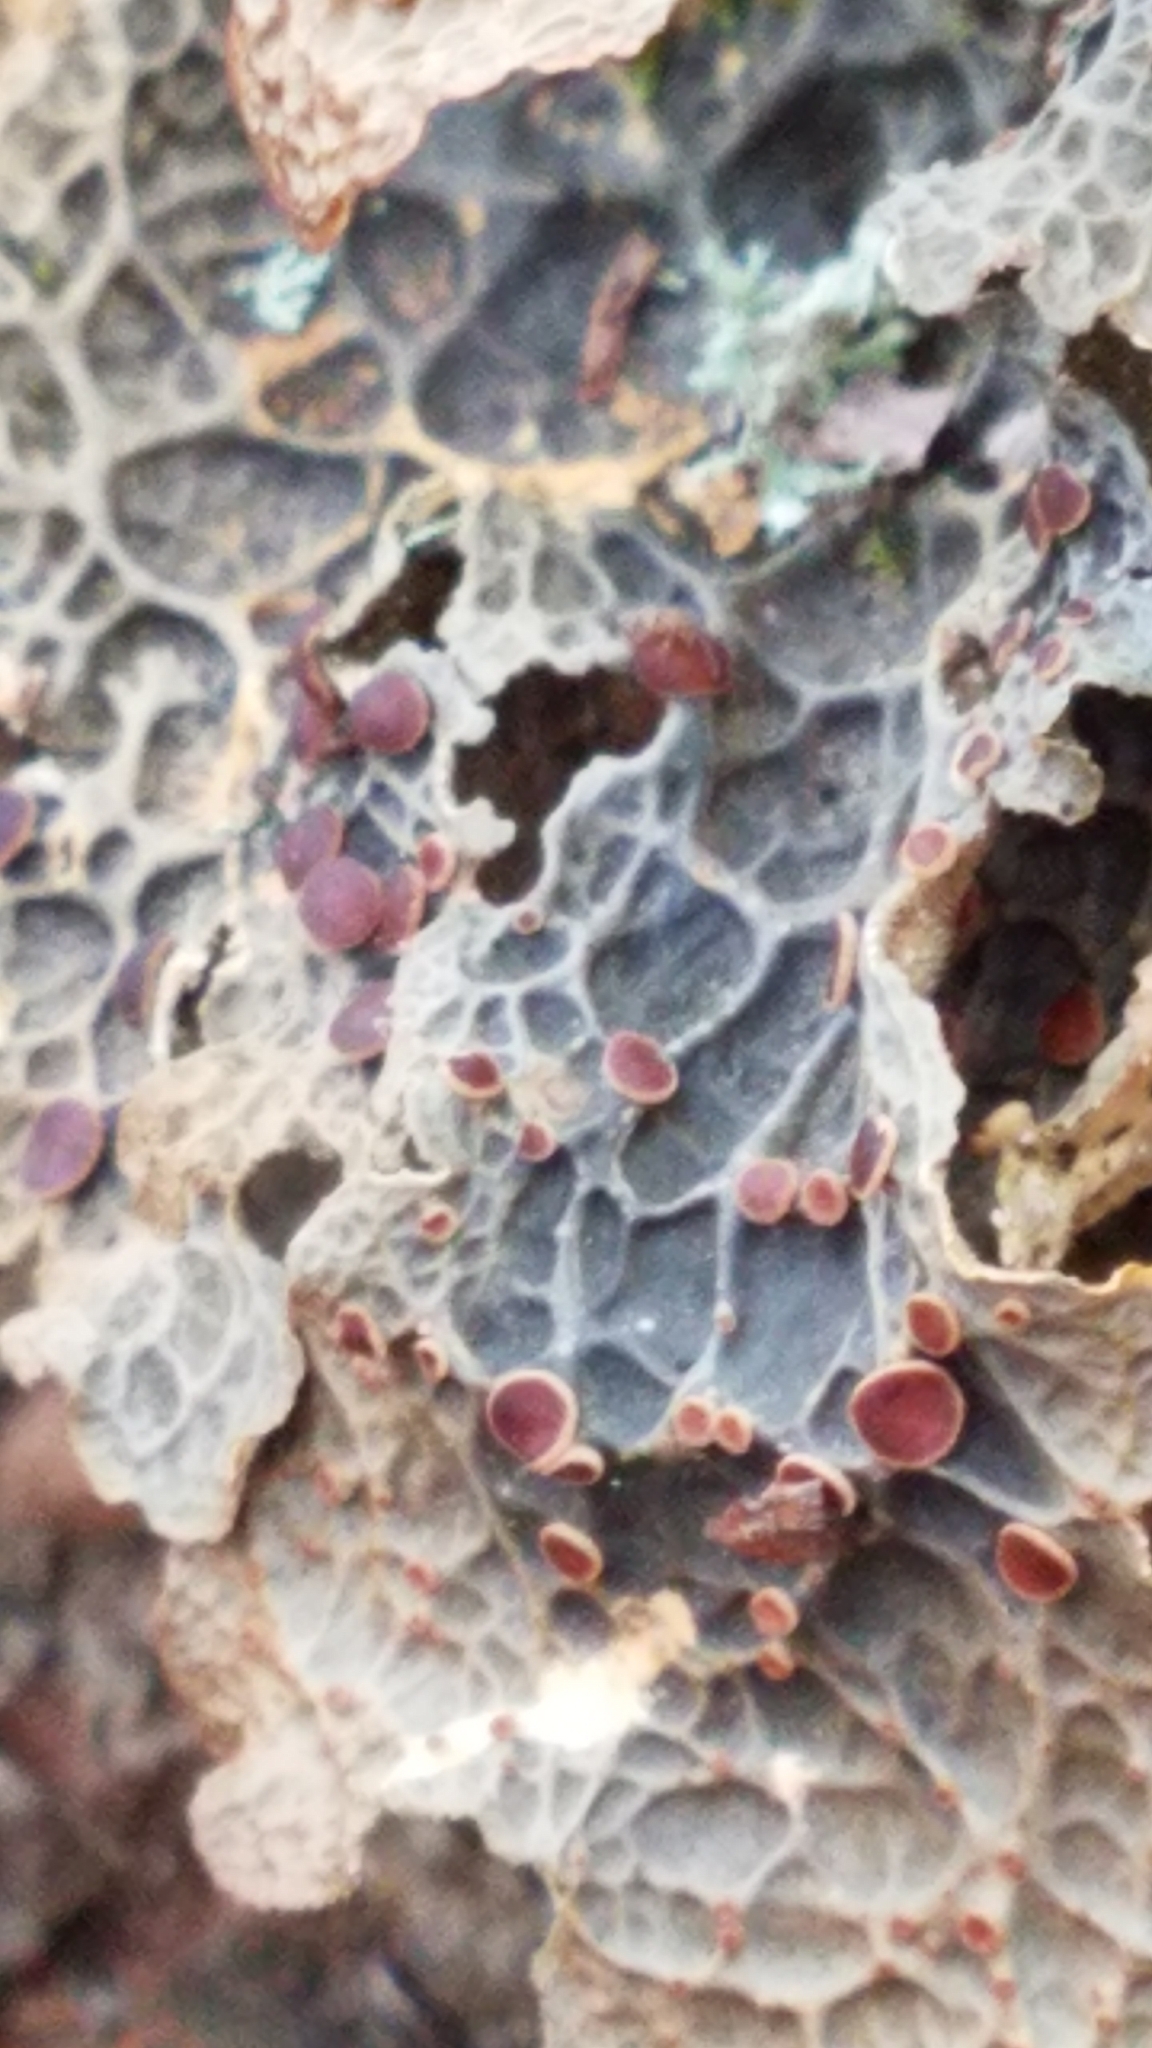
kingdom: Fungi
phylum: Ascomycota
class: Lecanoromycetes
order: Peltigerales
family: Lobariaceae
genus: Lobaria
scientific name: Lobaria anthraspis
